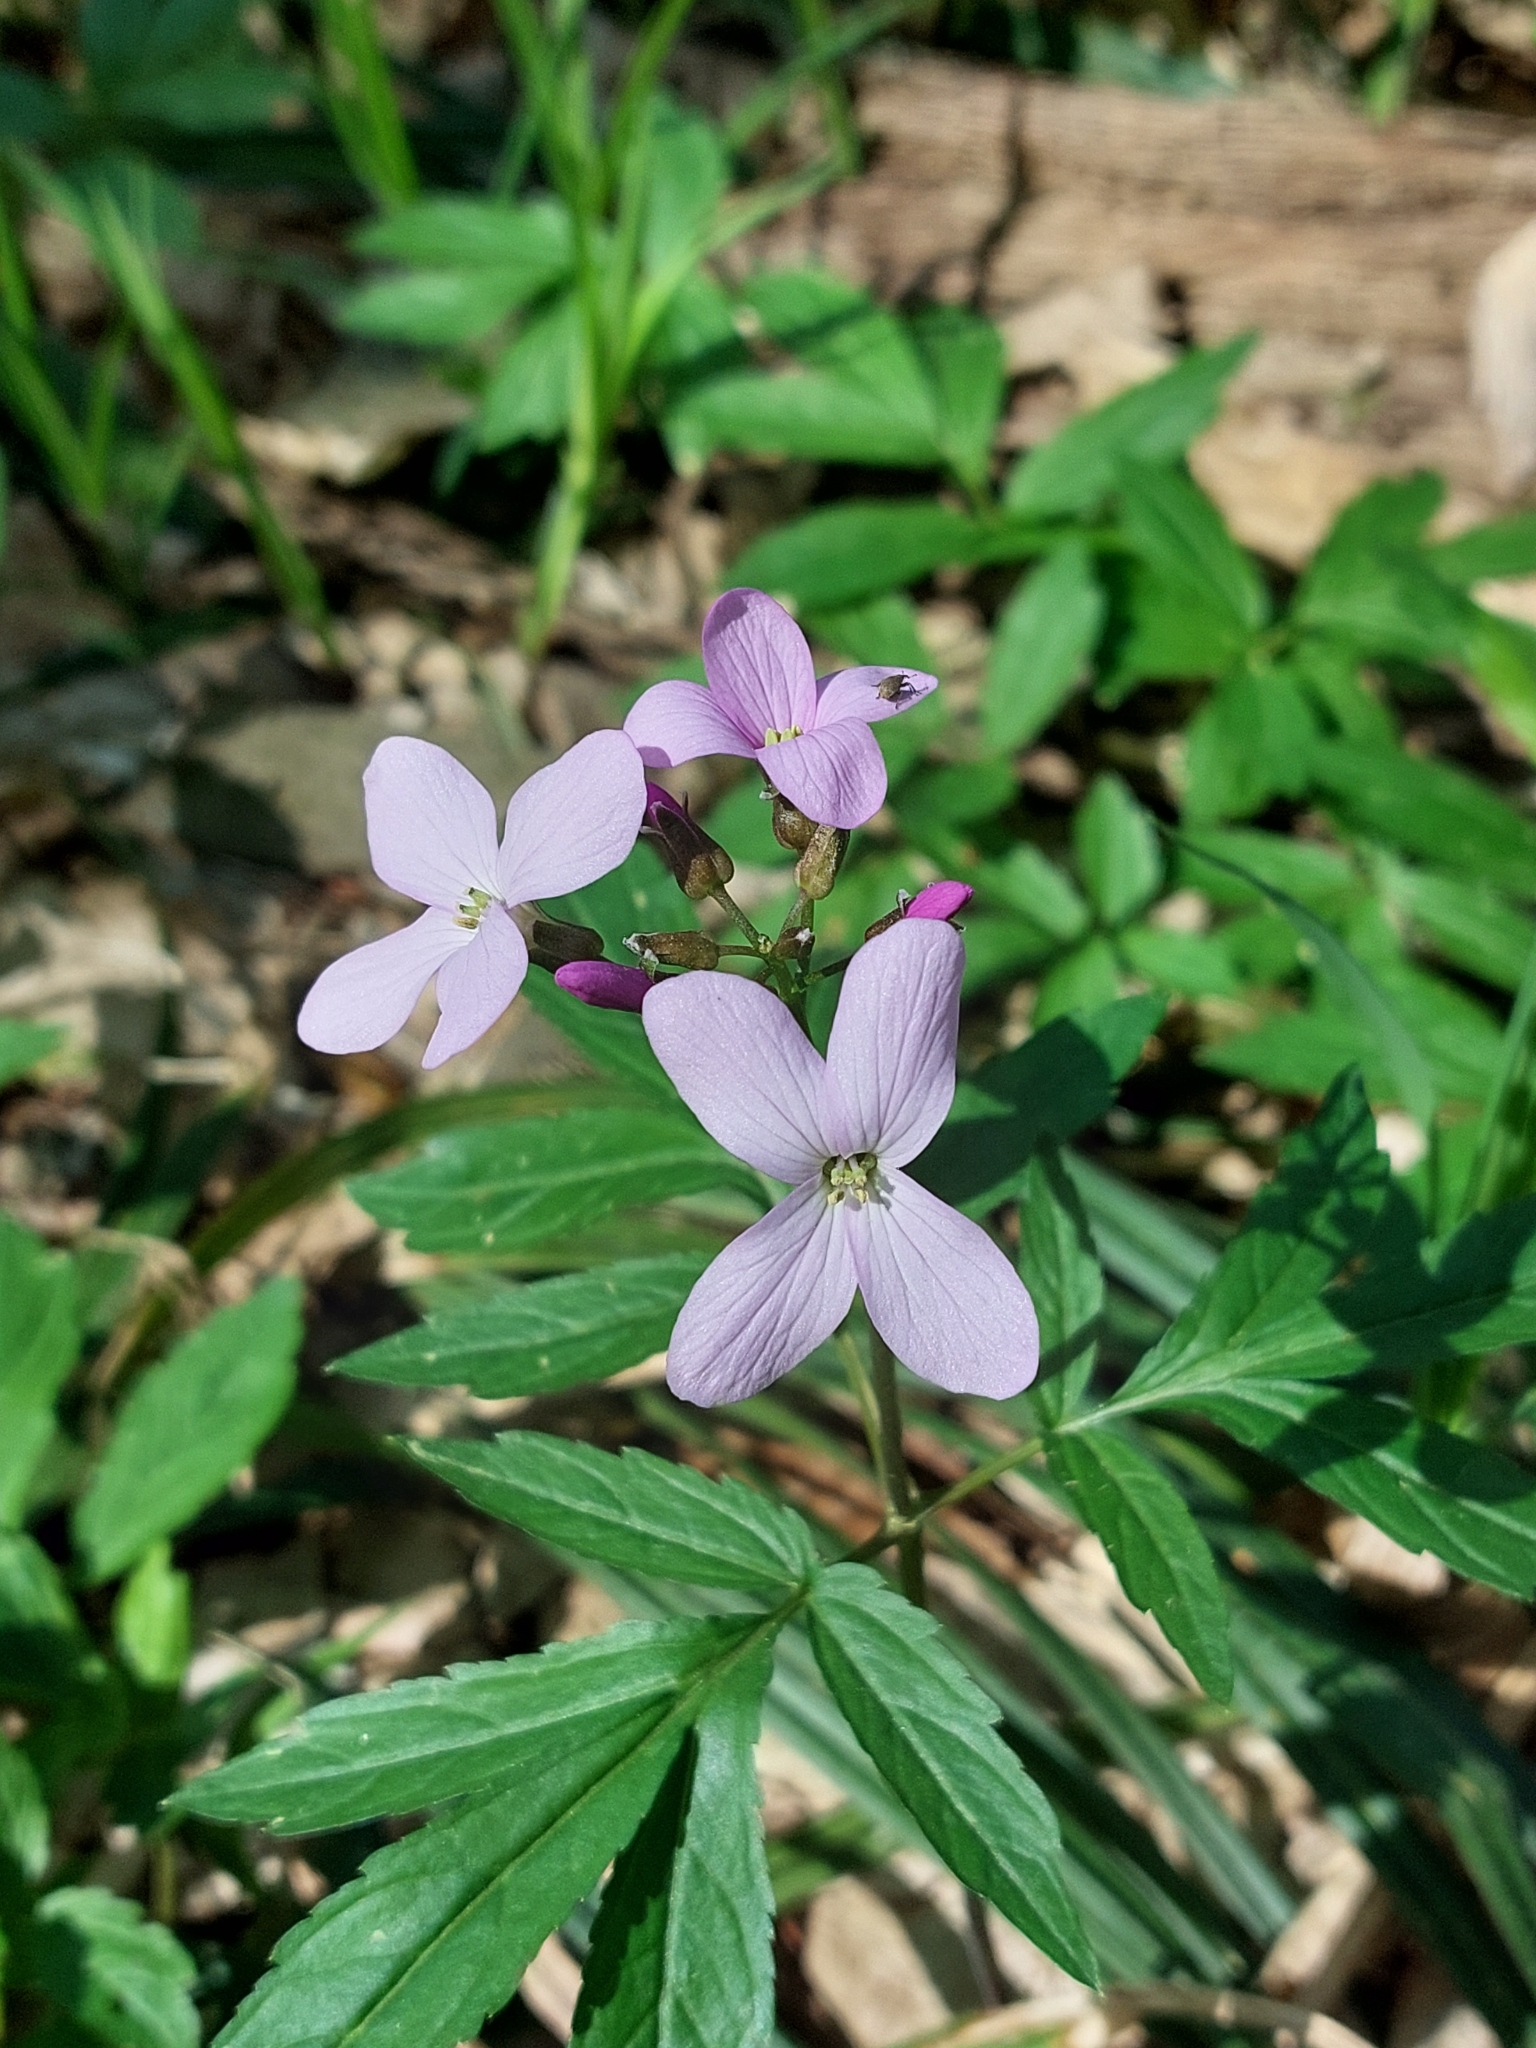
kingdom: Plantae
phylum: Tracheophyta
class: Magnoliopsida
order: Brassicales
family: Brassicaceae
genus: Cardamine
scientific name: Cardamine quinquefolia
